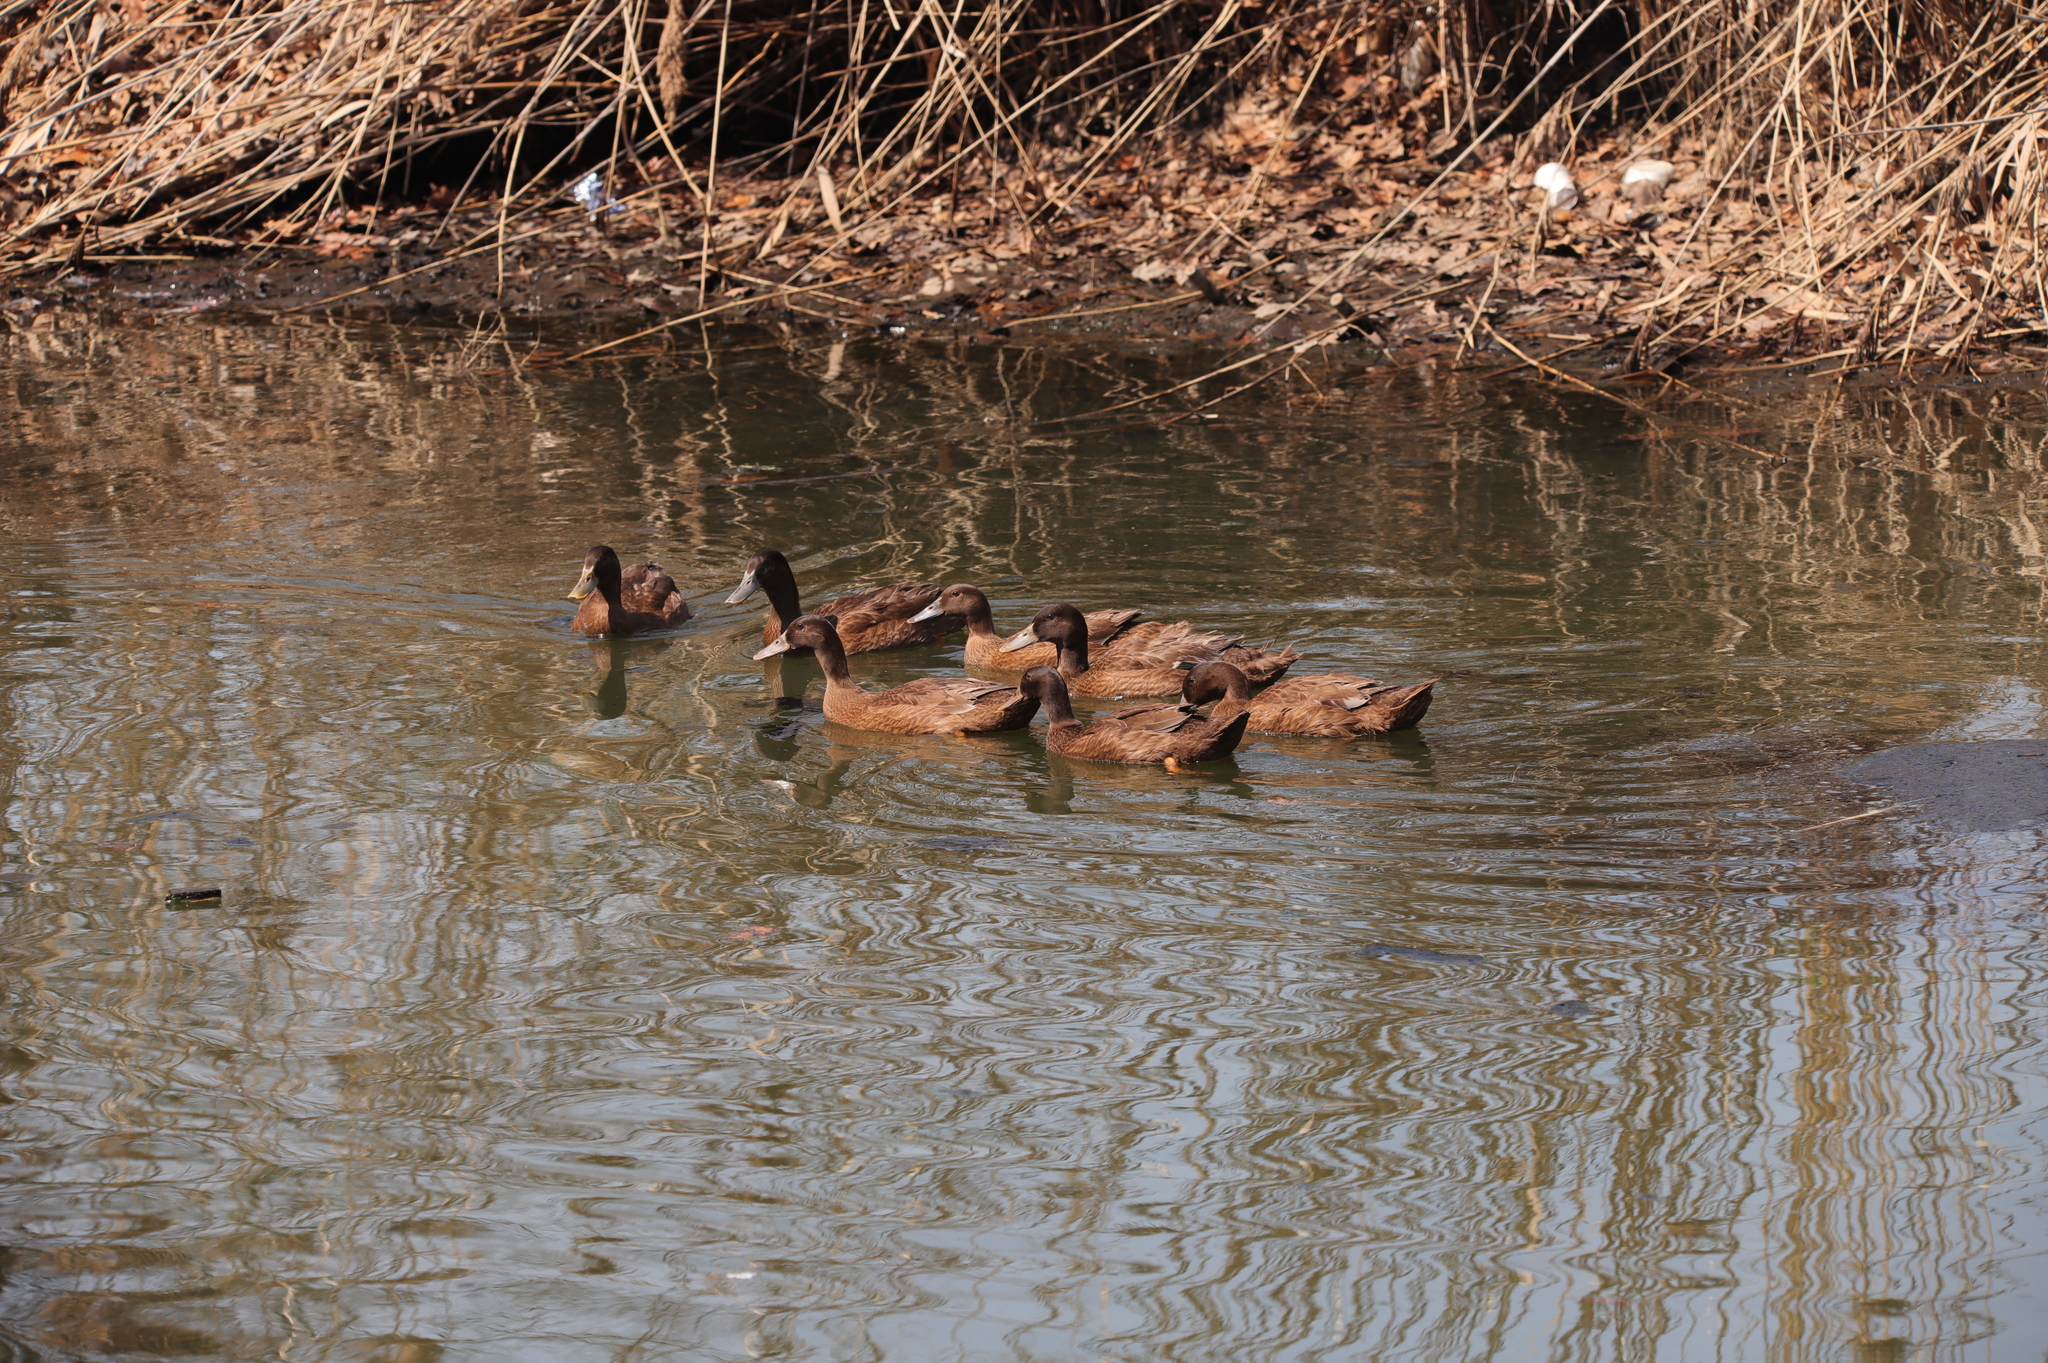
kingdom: Animalia
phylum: Chordata
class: Aves
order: Anseriformes
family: Anatidae
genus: Anas
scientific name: Anas platyrhynchos
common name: Mallard
